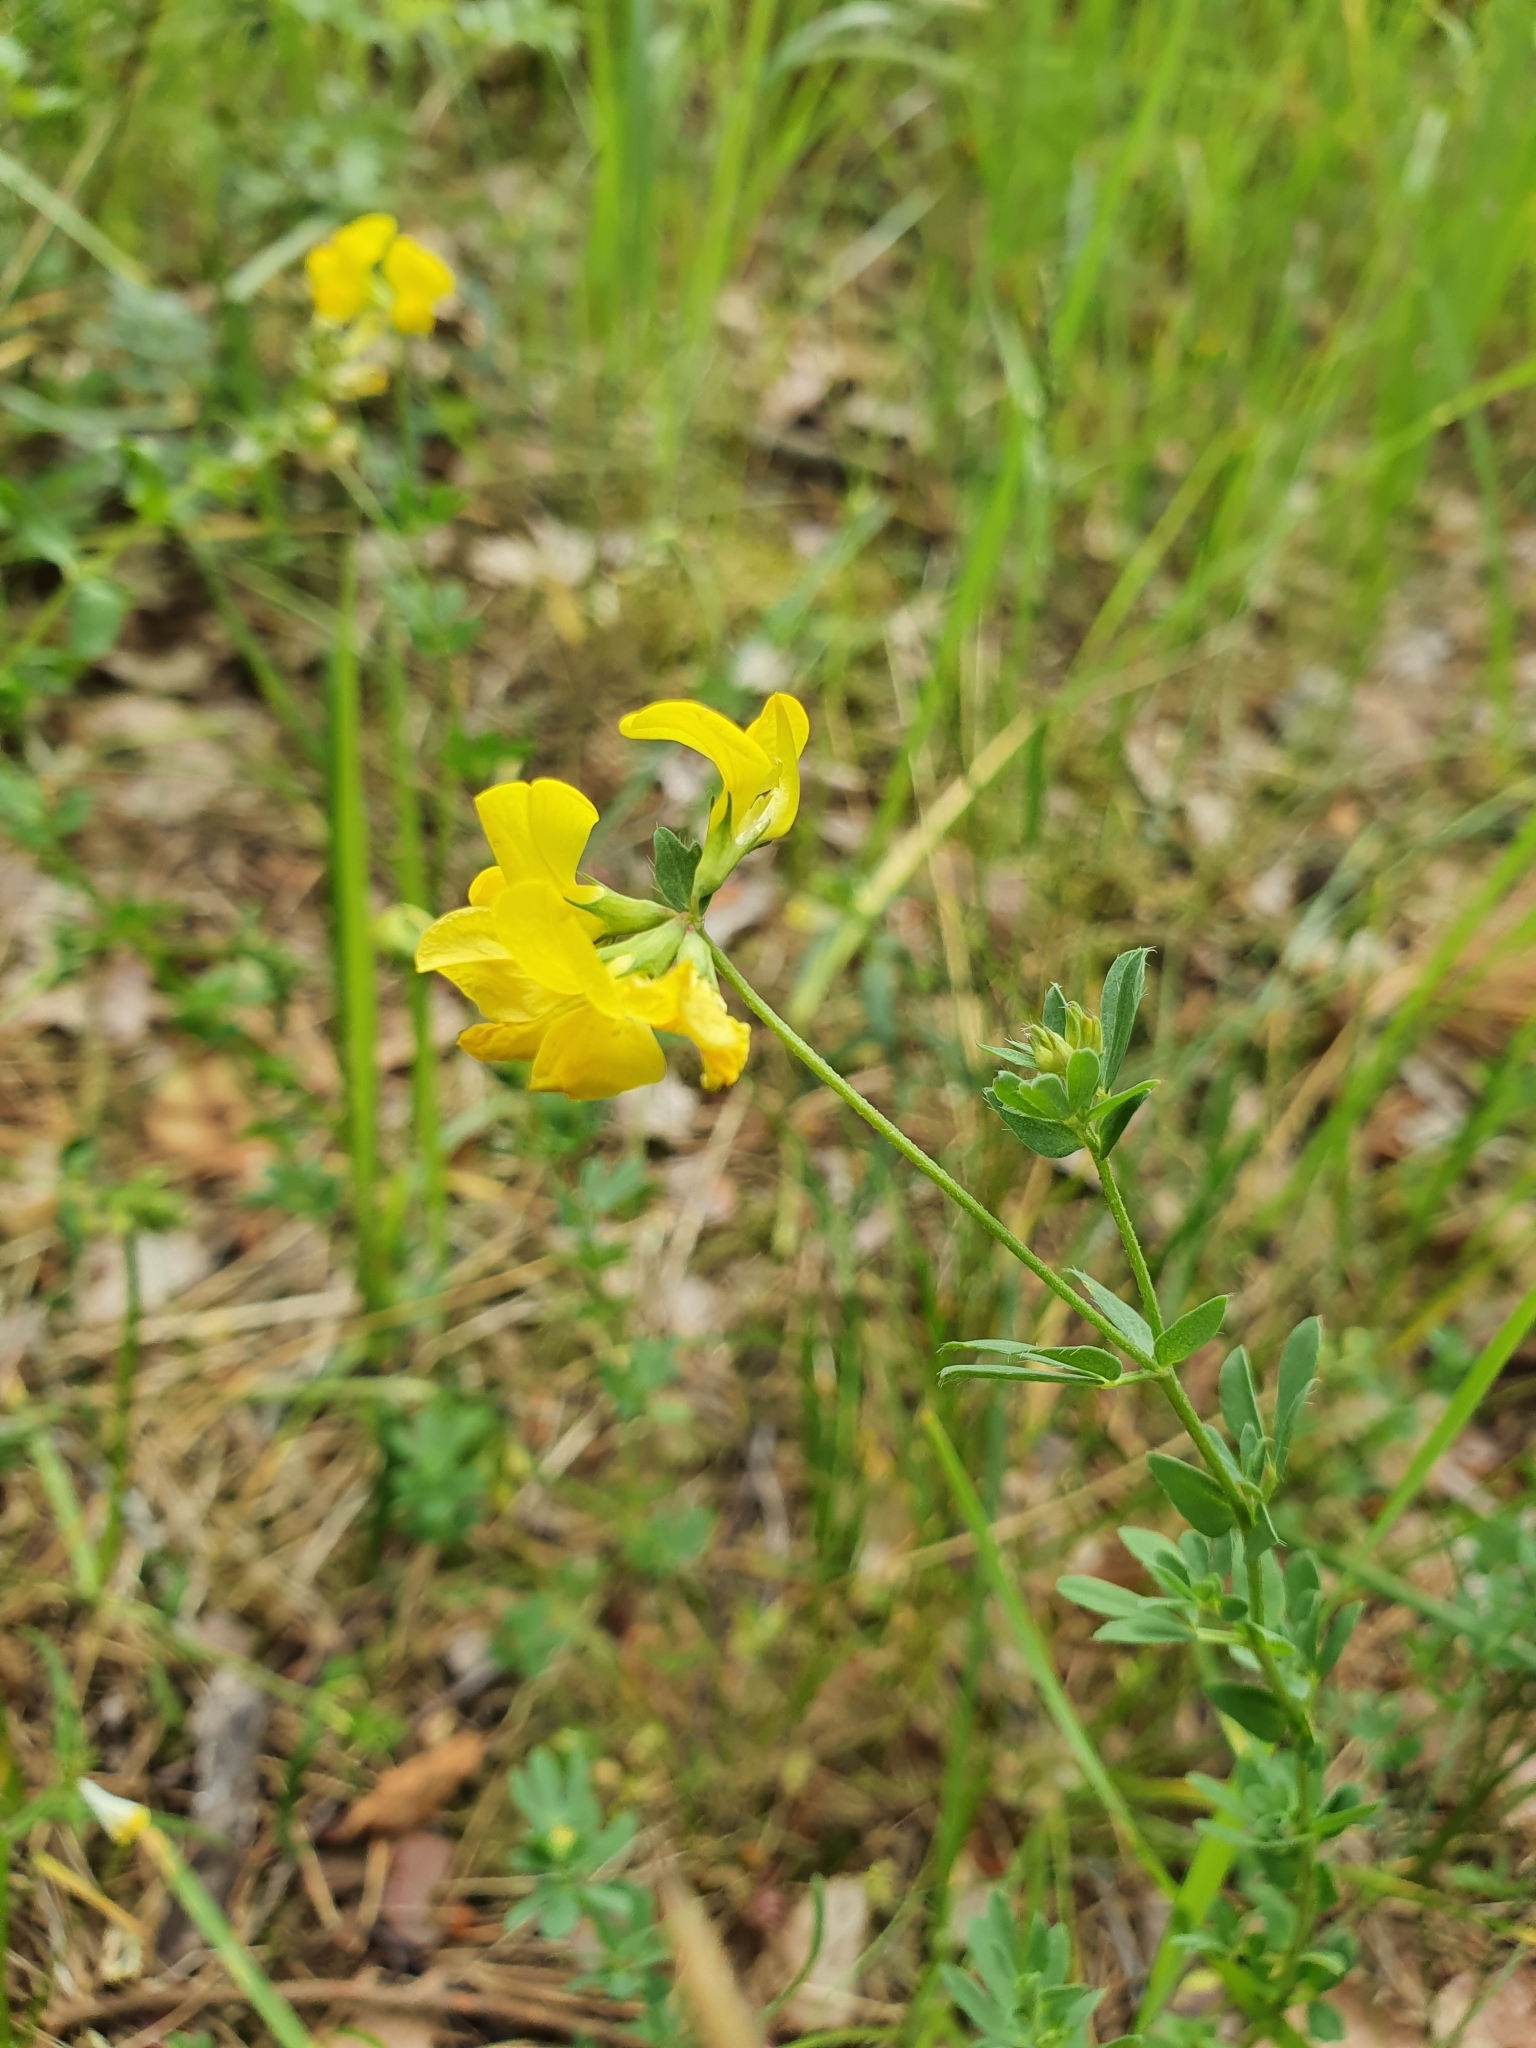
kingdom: Plantae
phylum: Tracheophyta
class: Magnoliopsida
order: Fabales
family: Fabaceae
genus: Lotus
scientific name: Lotus corniculatus
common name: Common bird's-foot-trefoil
